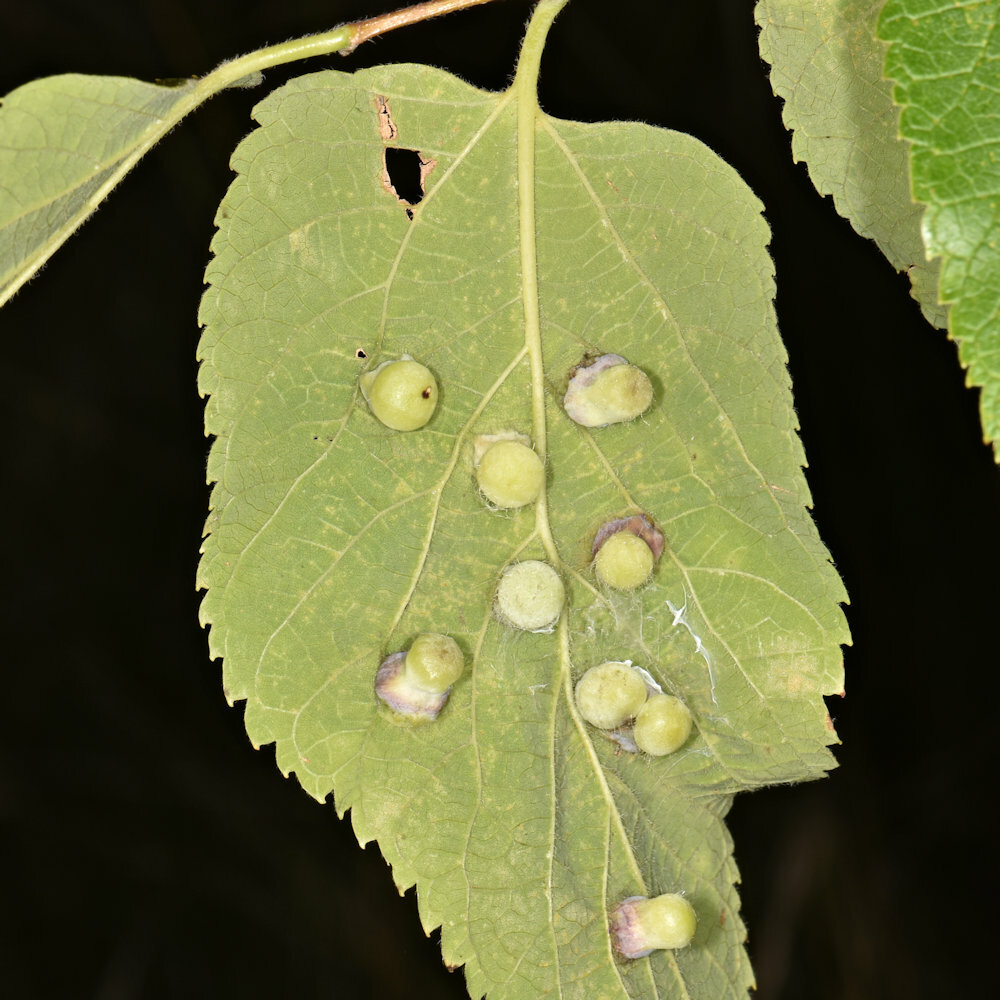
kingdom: Animalia
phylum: Arthropoda
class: Insecta
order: Hemiptera
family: Aphalaridae
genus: Pachypsylla
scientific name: Pachypsylla celtidismamma
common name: Hackberry nipplegall psyllid
